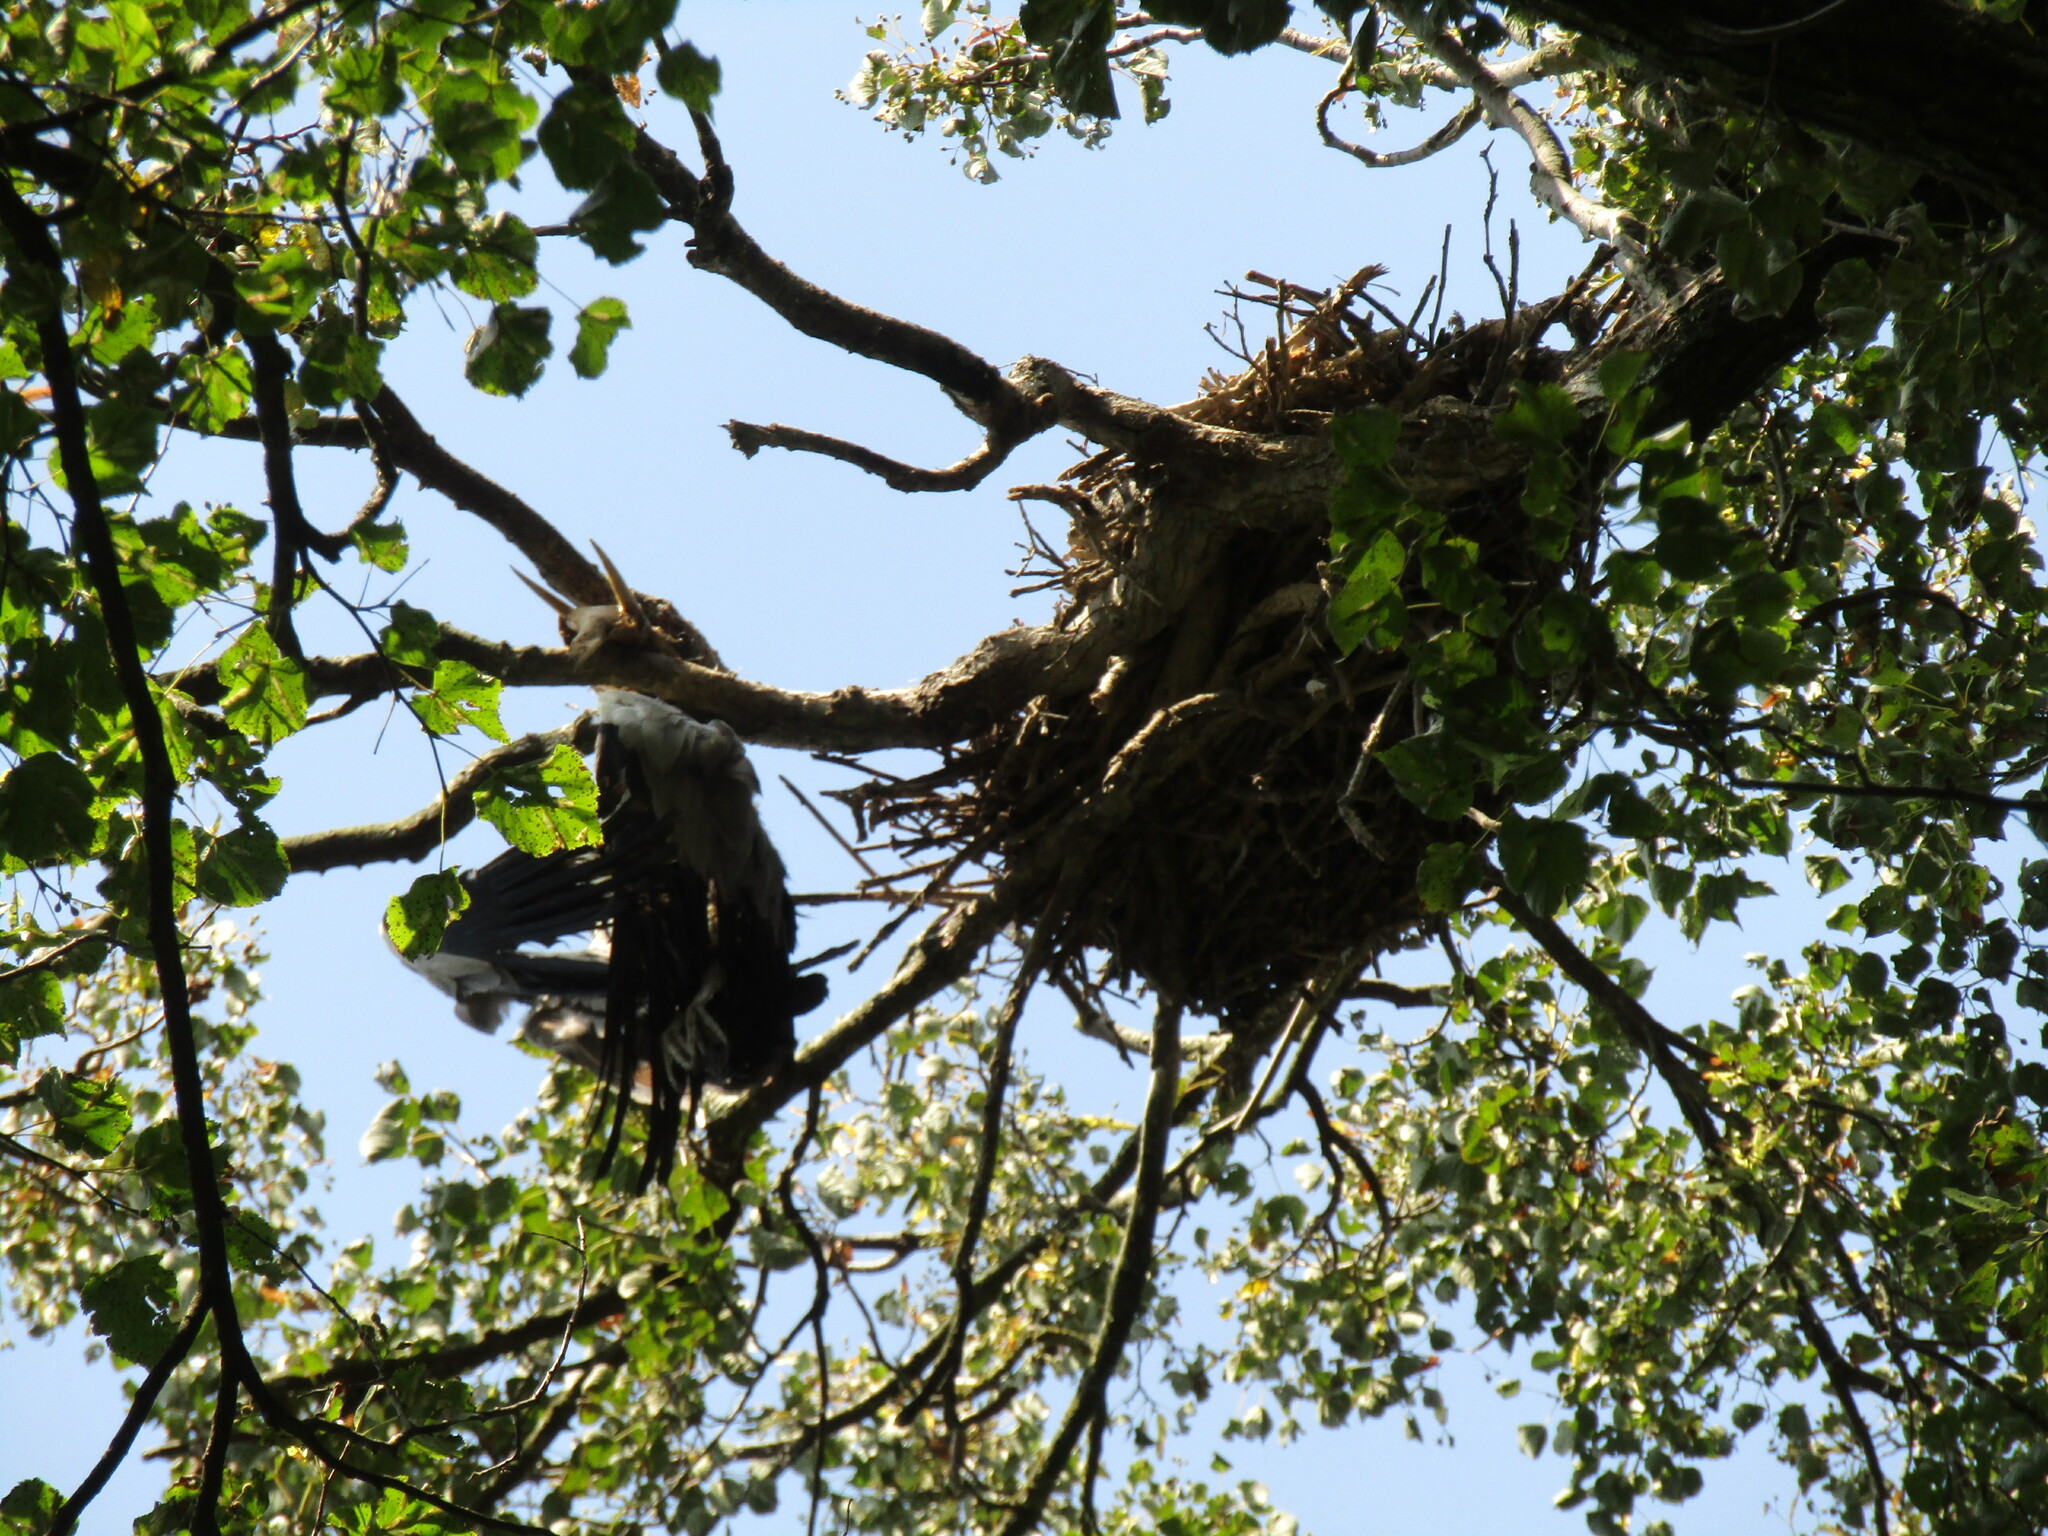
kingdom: Animalia
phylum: Chordata
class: Aves
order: Pelecaniformes
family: Ardeidae
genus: Ardea
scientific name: Ardea cinerea
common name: Grey heron
